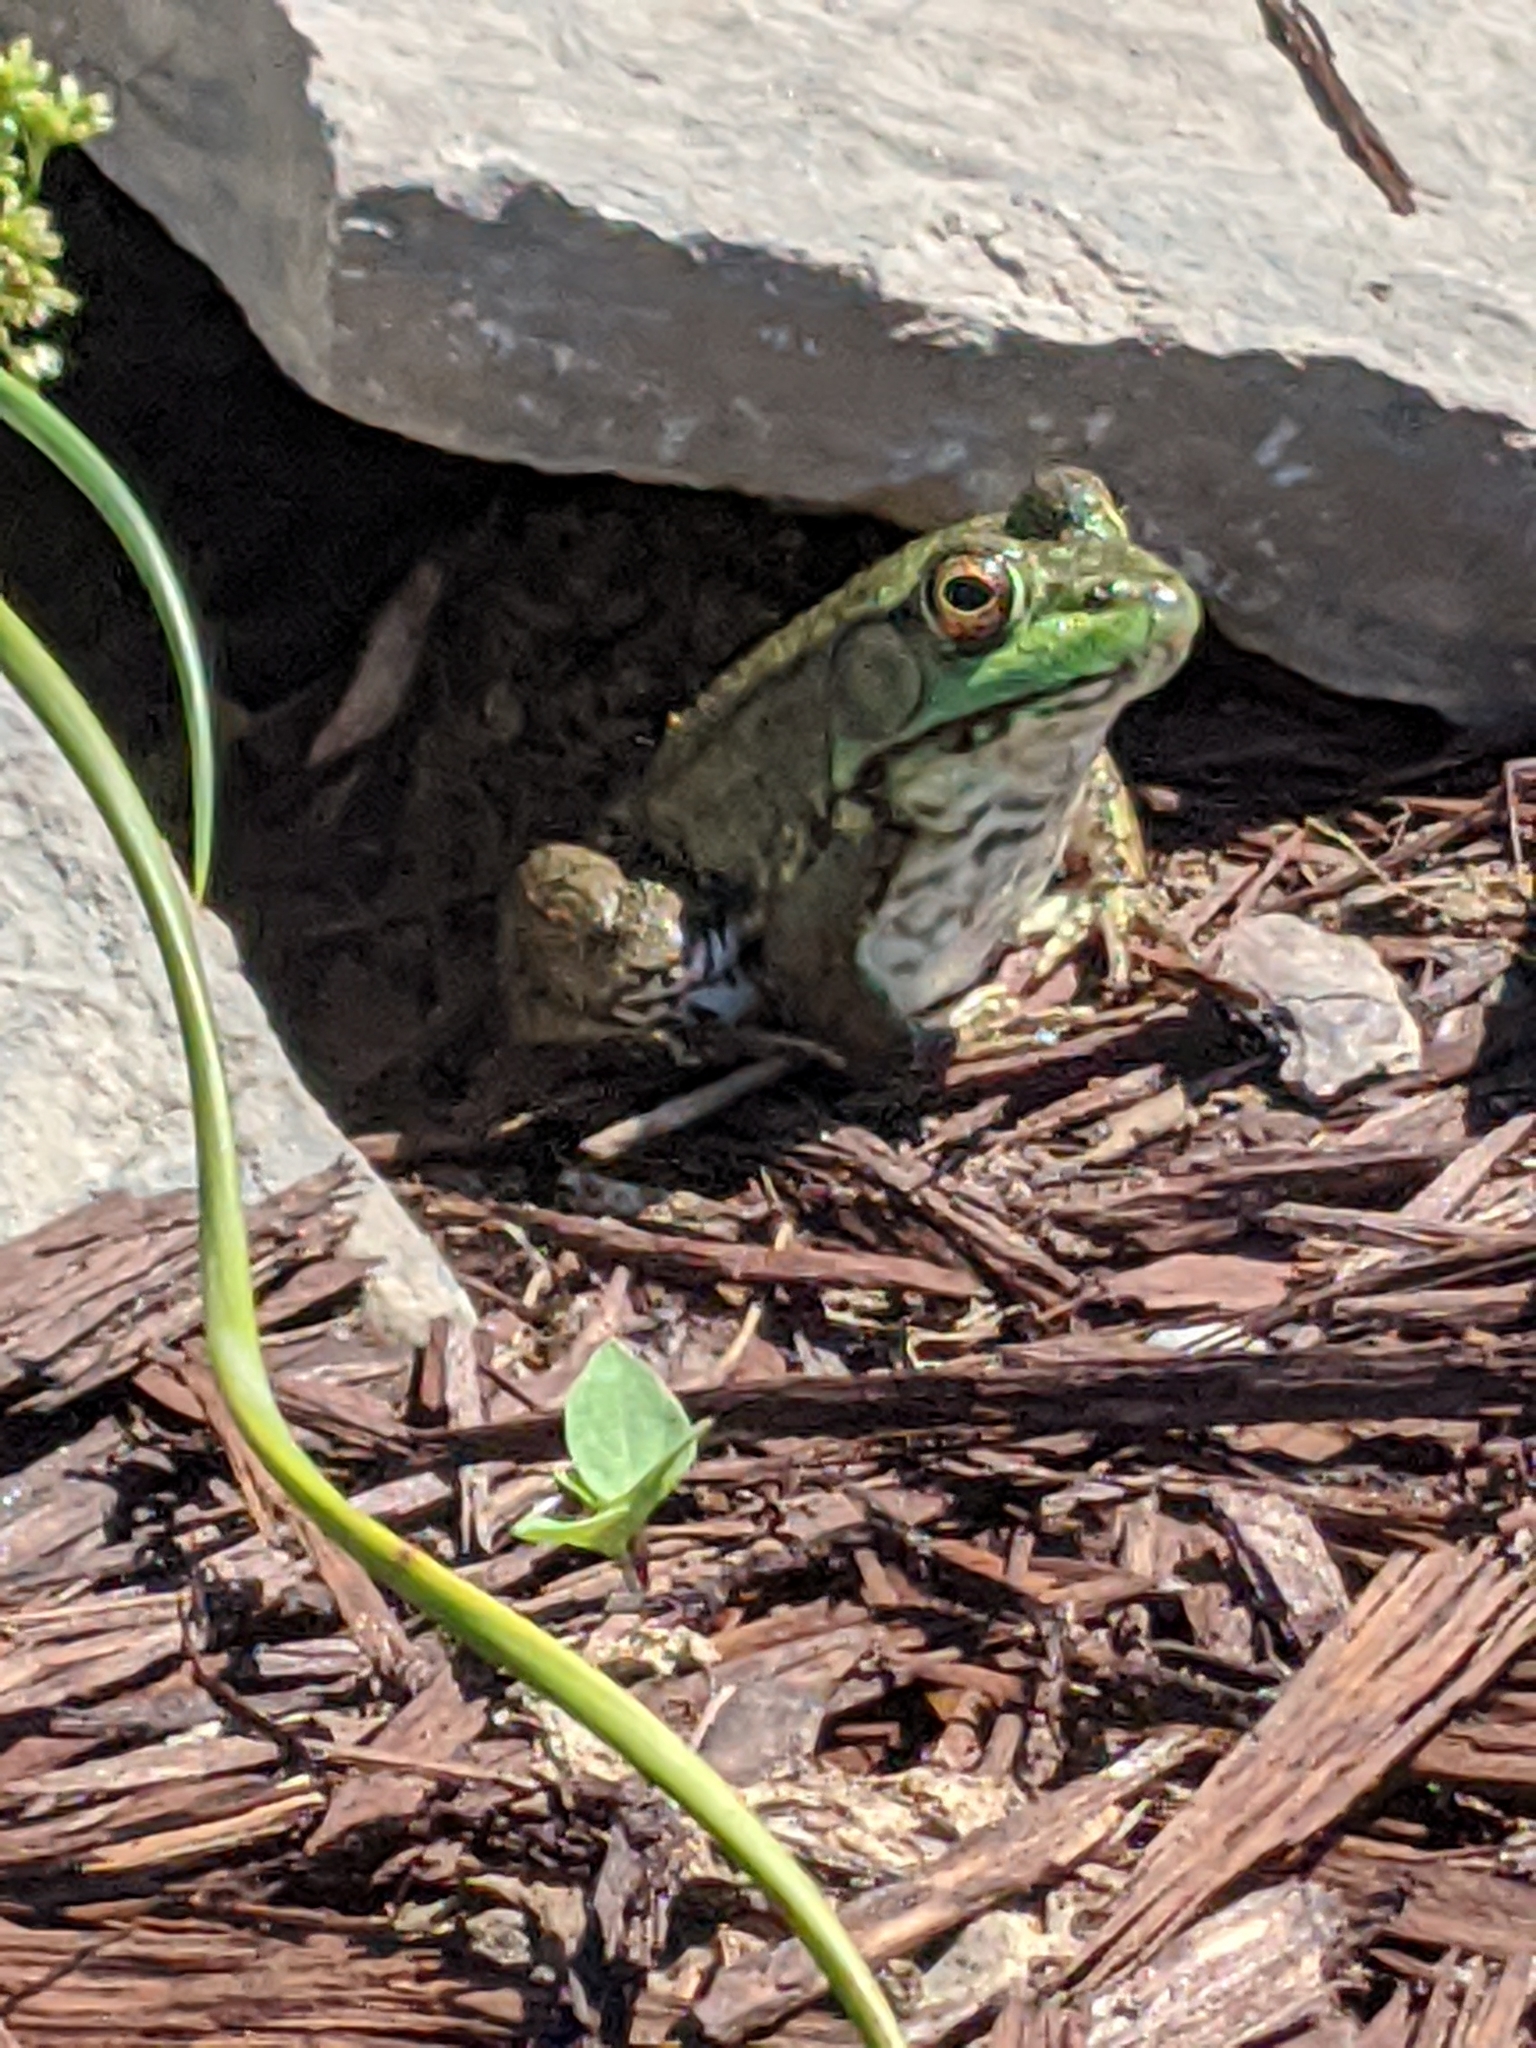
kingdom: Animalia
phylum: Chordata
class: Amphibia
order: Anura
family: Ranidae
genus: Lithobates
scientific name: Lithobates clamitans
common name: Green frog
